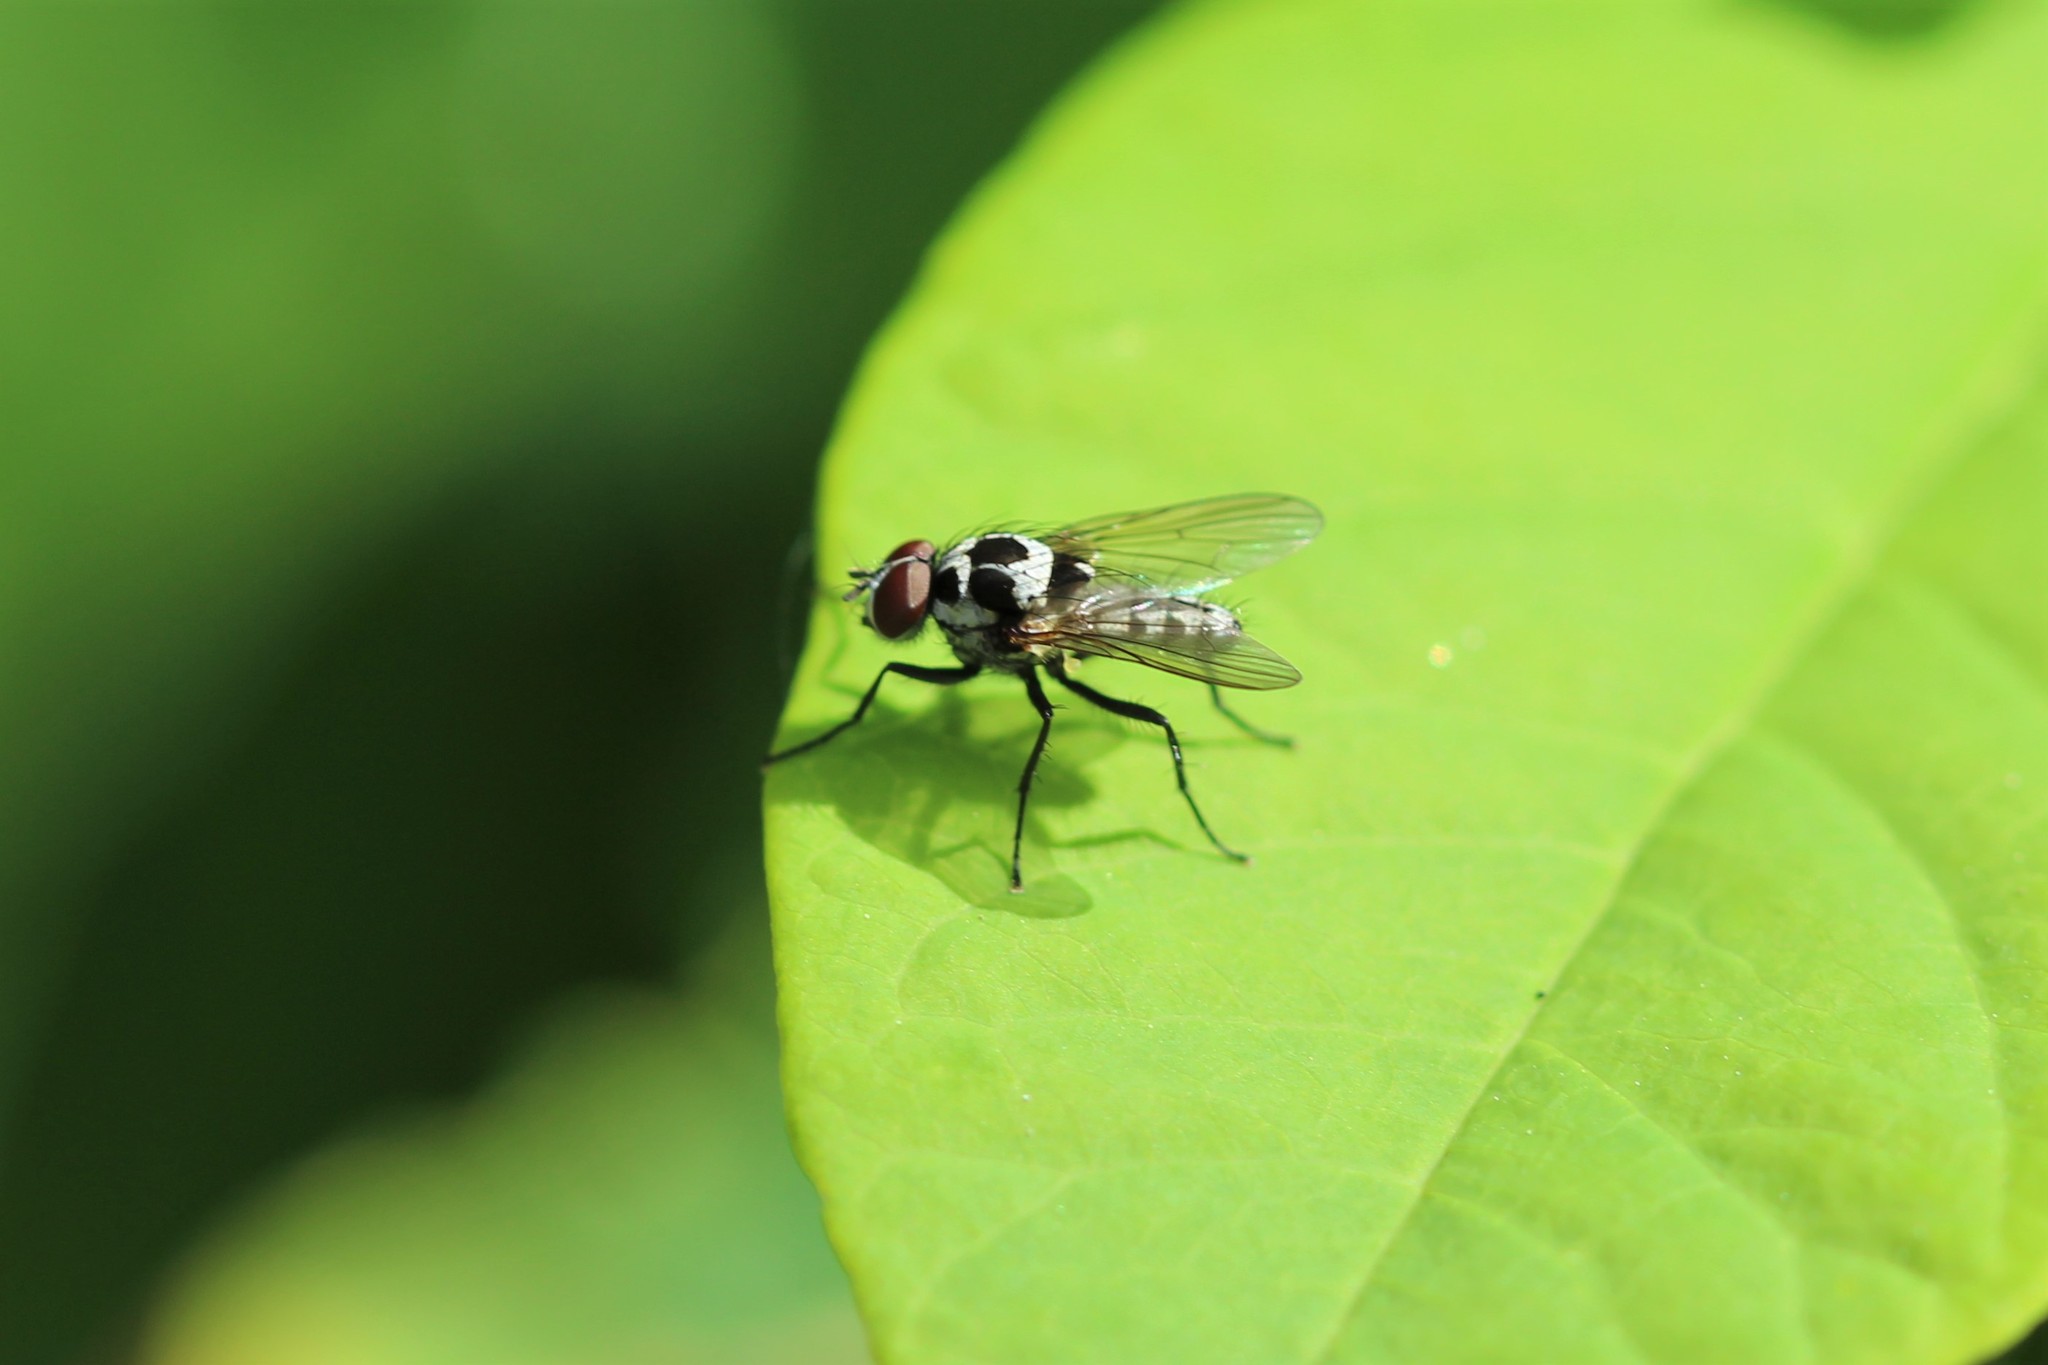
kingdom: Animalia
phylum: Arthropoda
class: Insecta
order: Diptera
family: Anthomyiidae
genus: Anthomyia
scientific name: Anthomyia procellaris
